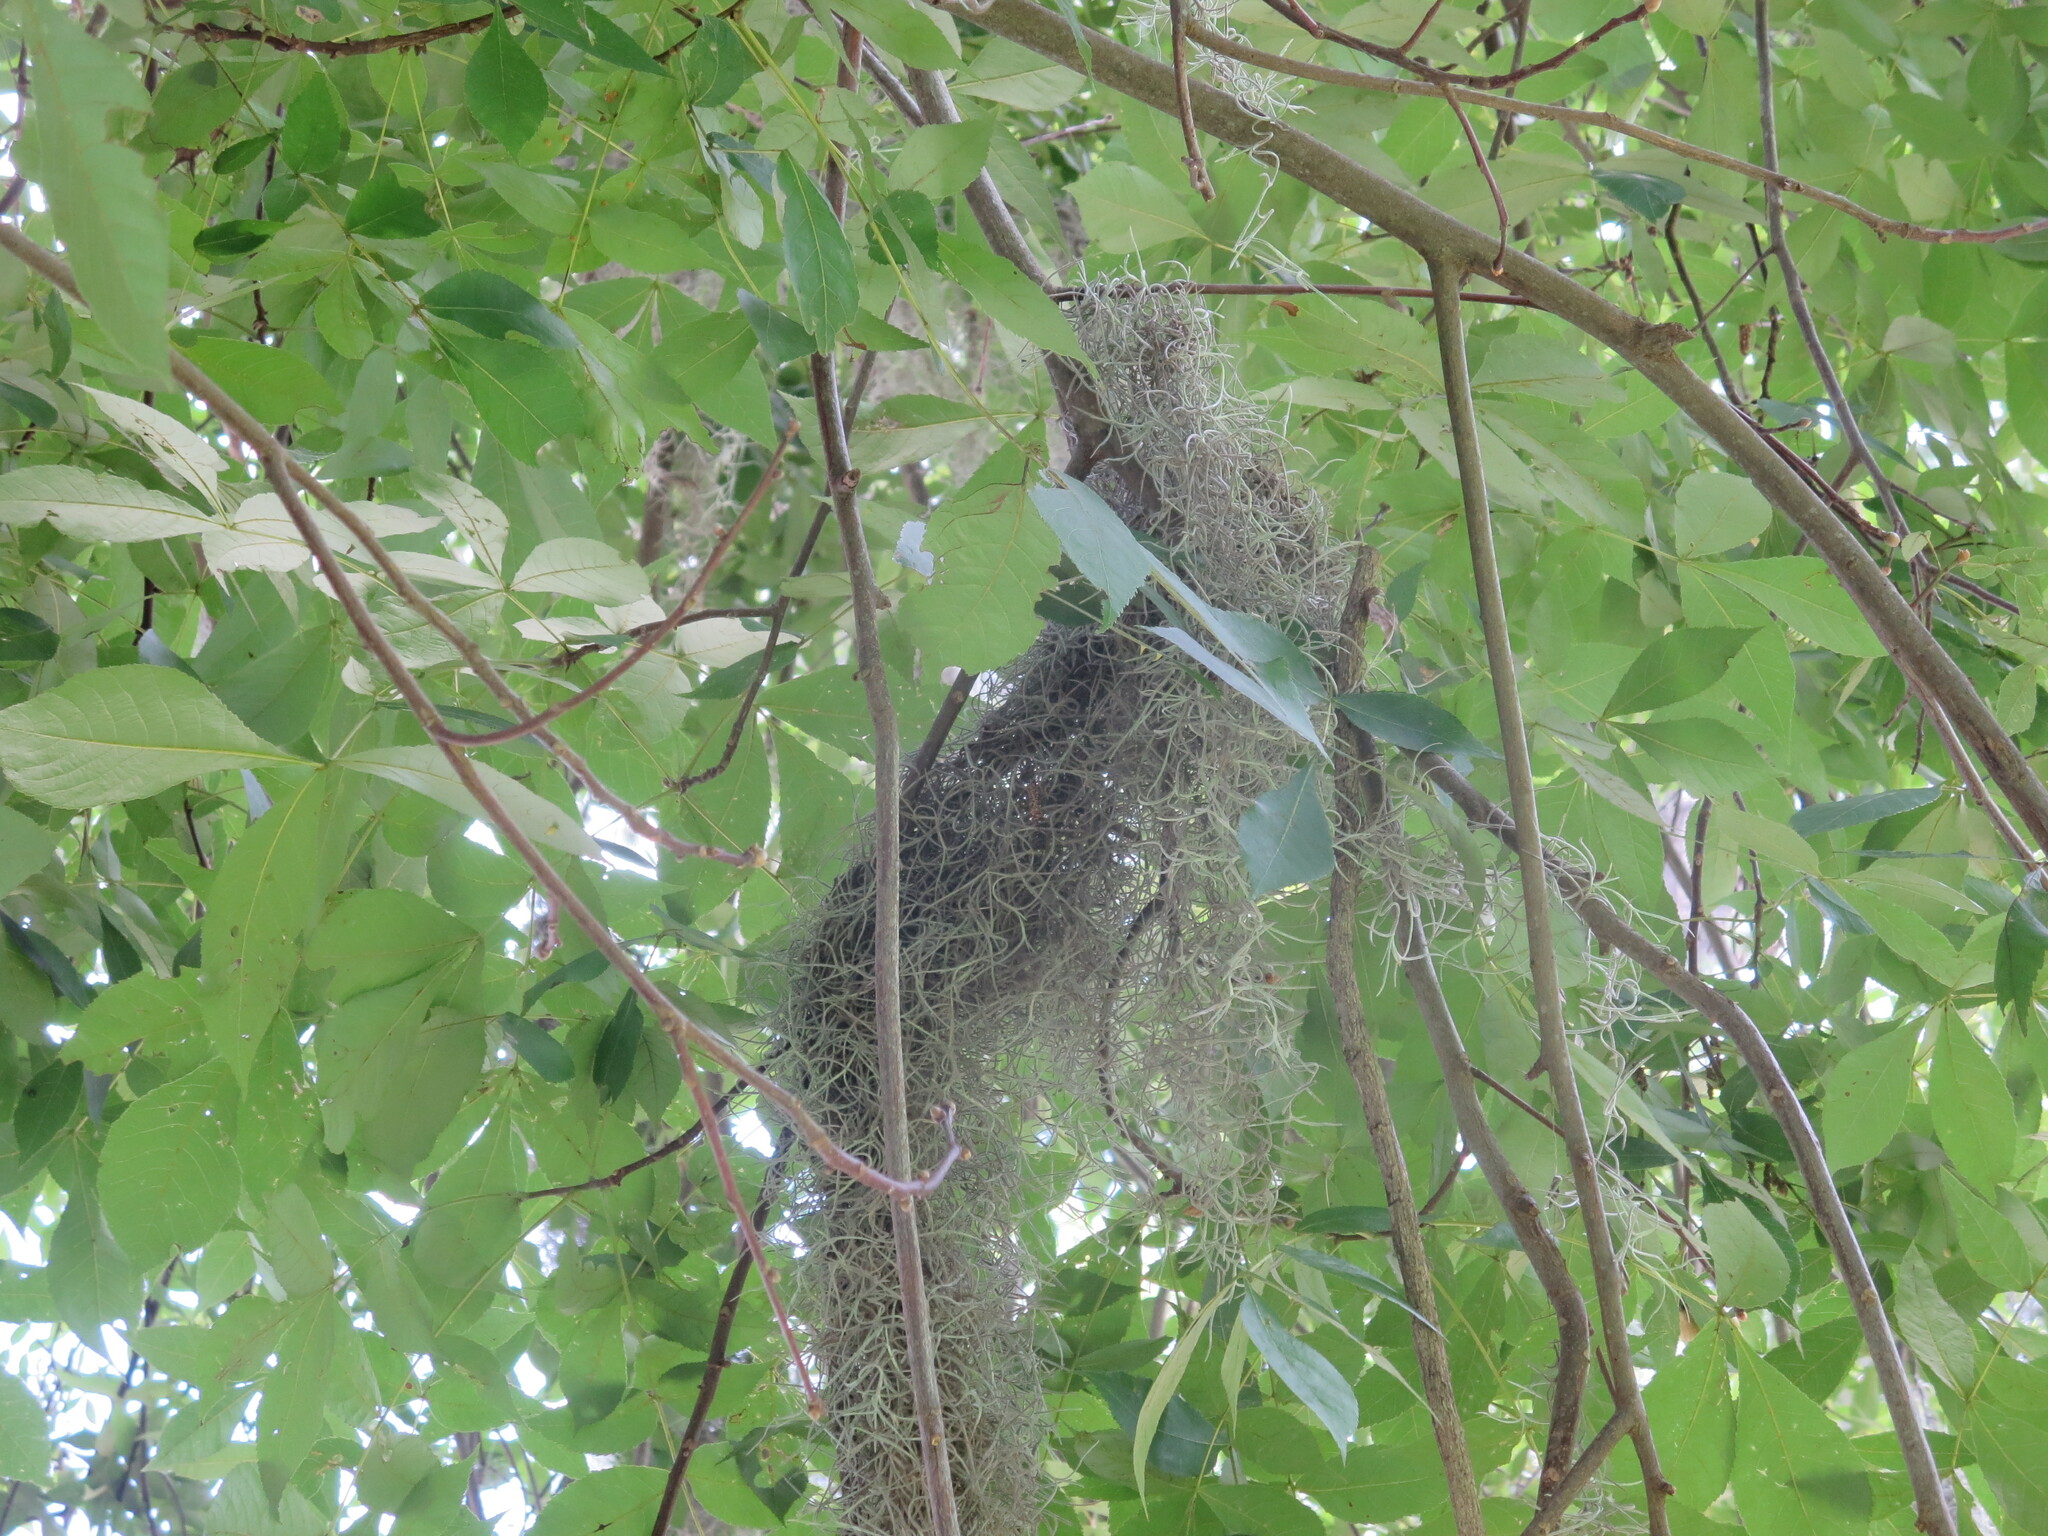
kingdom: Plantae
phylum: Tracheophyta
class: Liliopsida
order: Poales
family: Bromeliaceae
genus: Tillandsia
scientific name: Tillandsia usneoides
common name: Spanish moss
